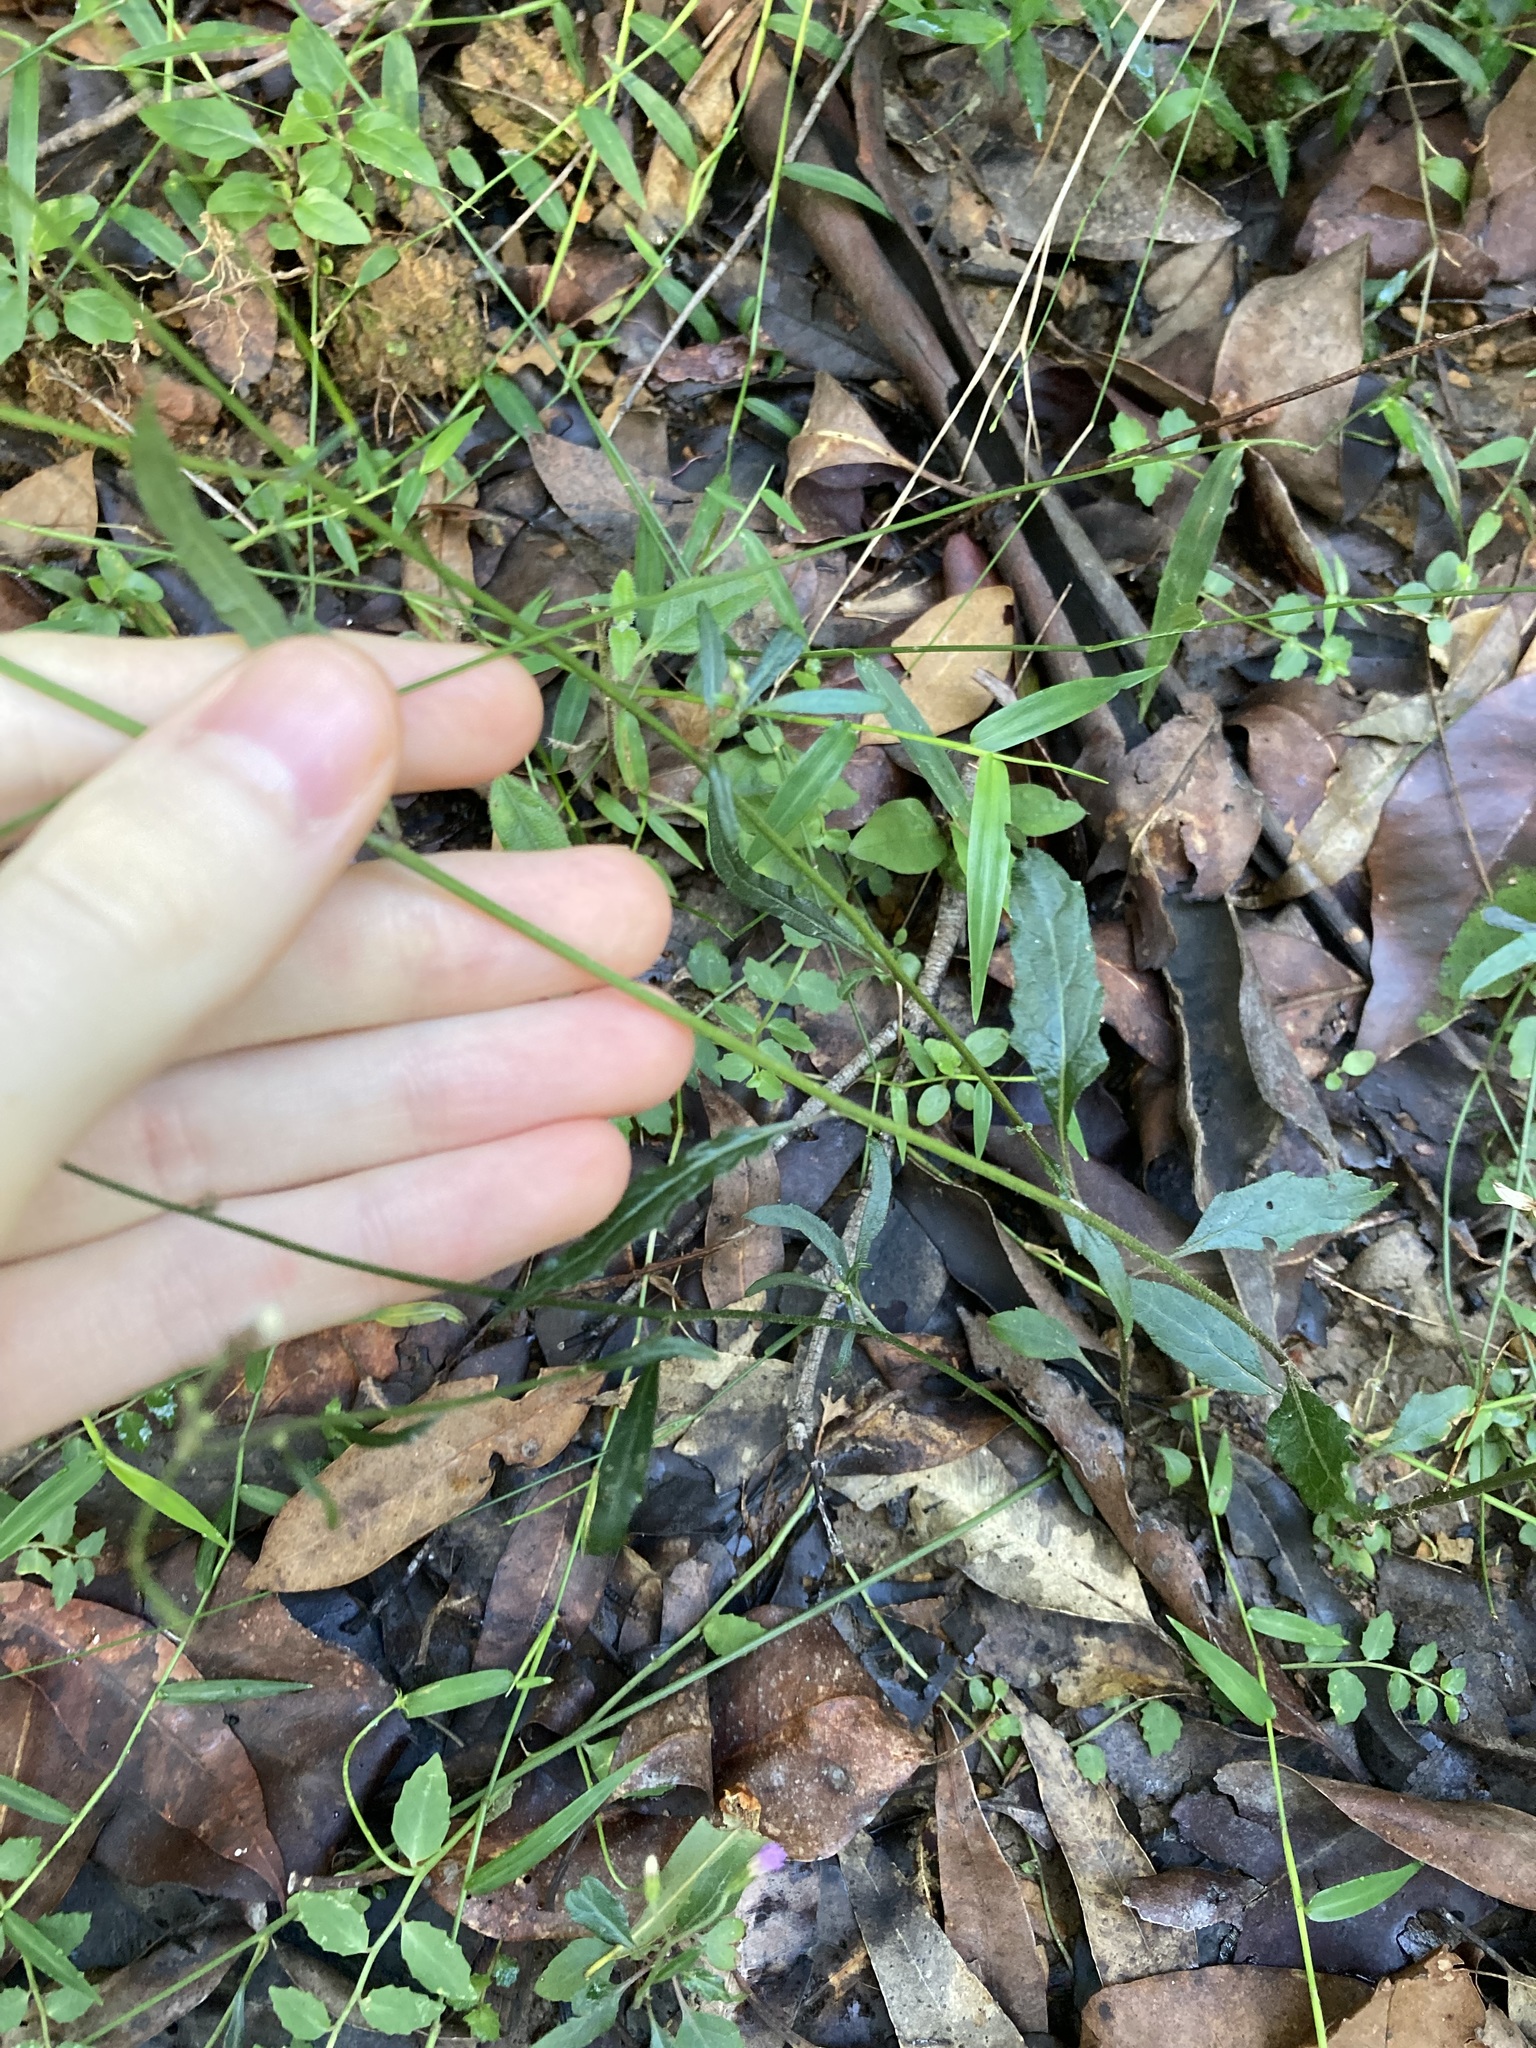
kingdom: Plantae
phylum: Tracheophyta
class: Magnoliopsida
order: Asterales
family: Asteraceae
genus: Cyanthillium
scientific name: Cyanthillium cinereum
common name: Little ironweed
